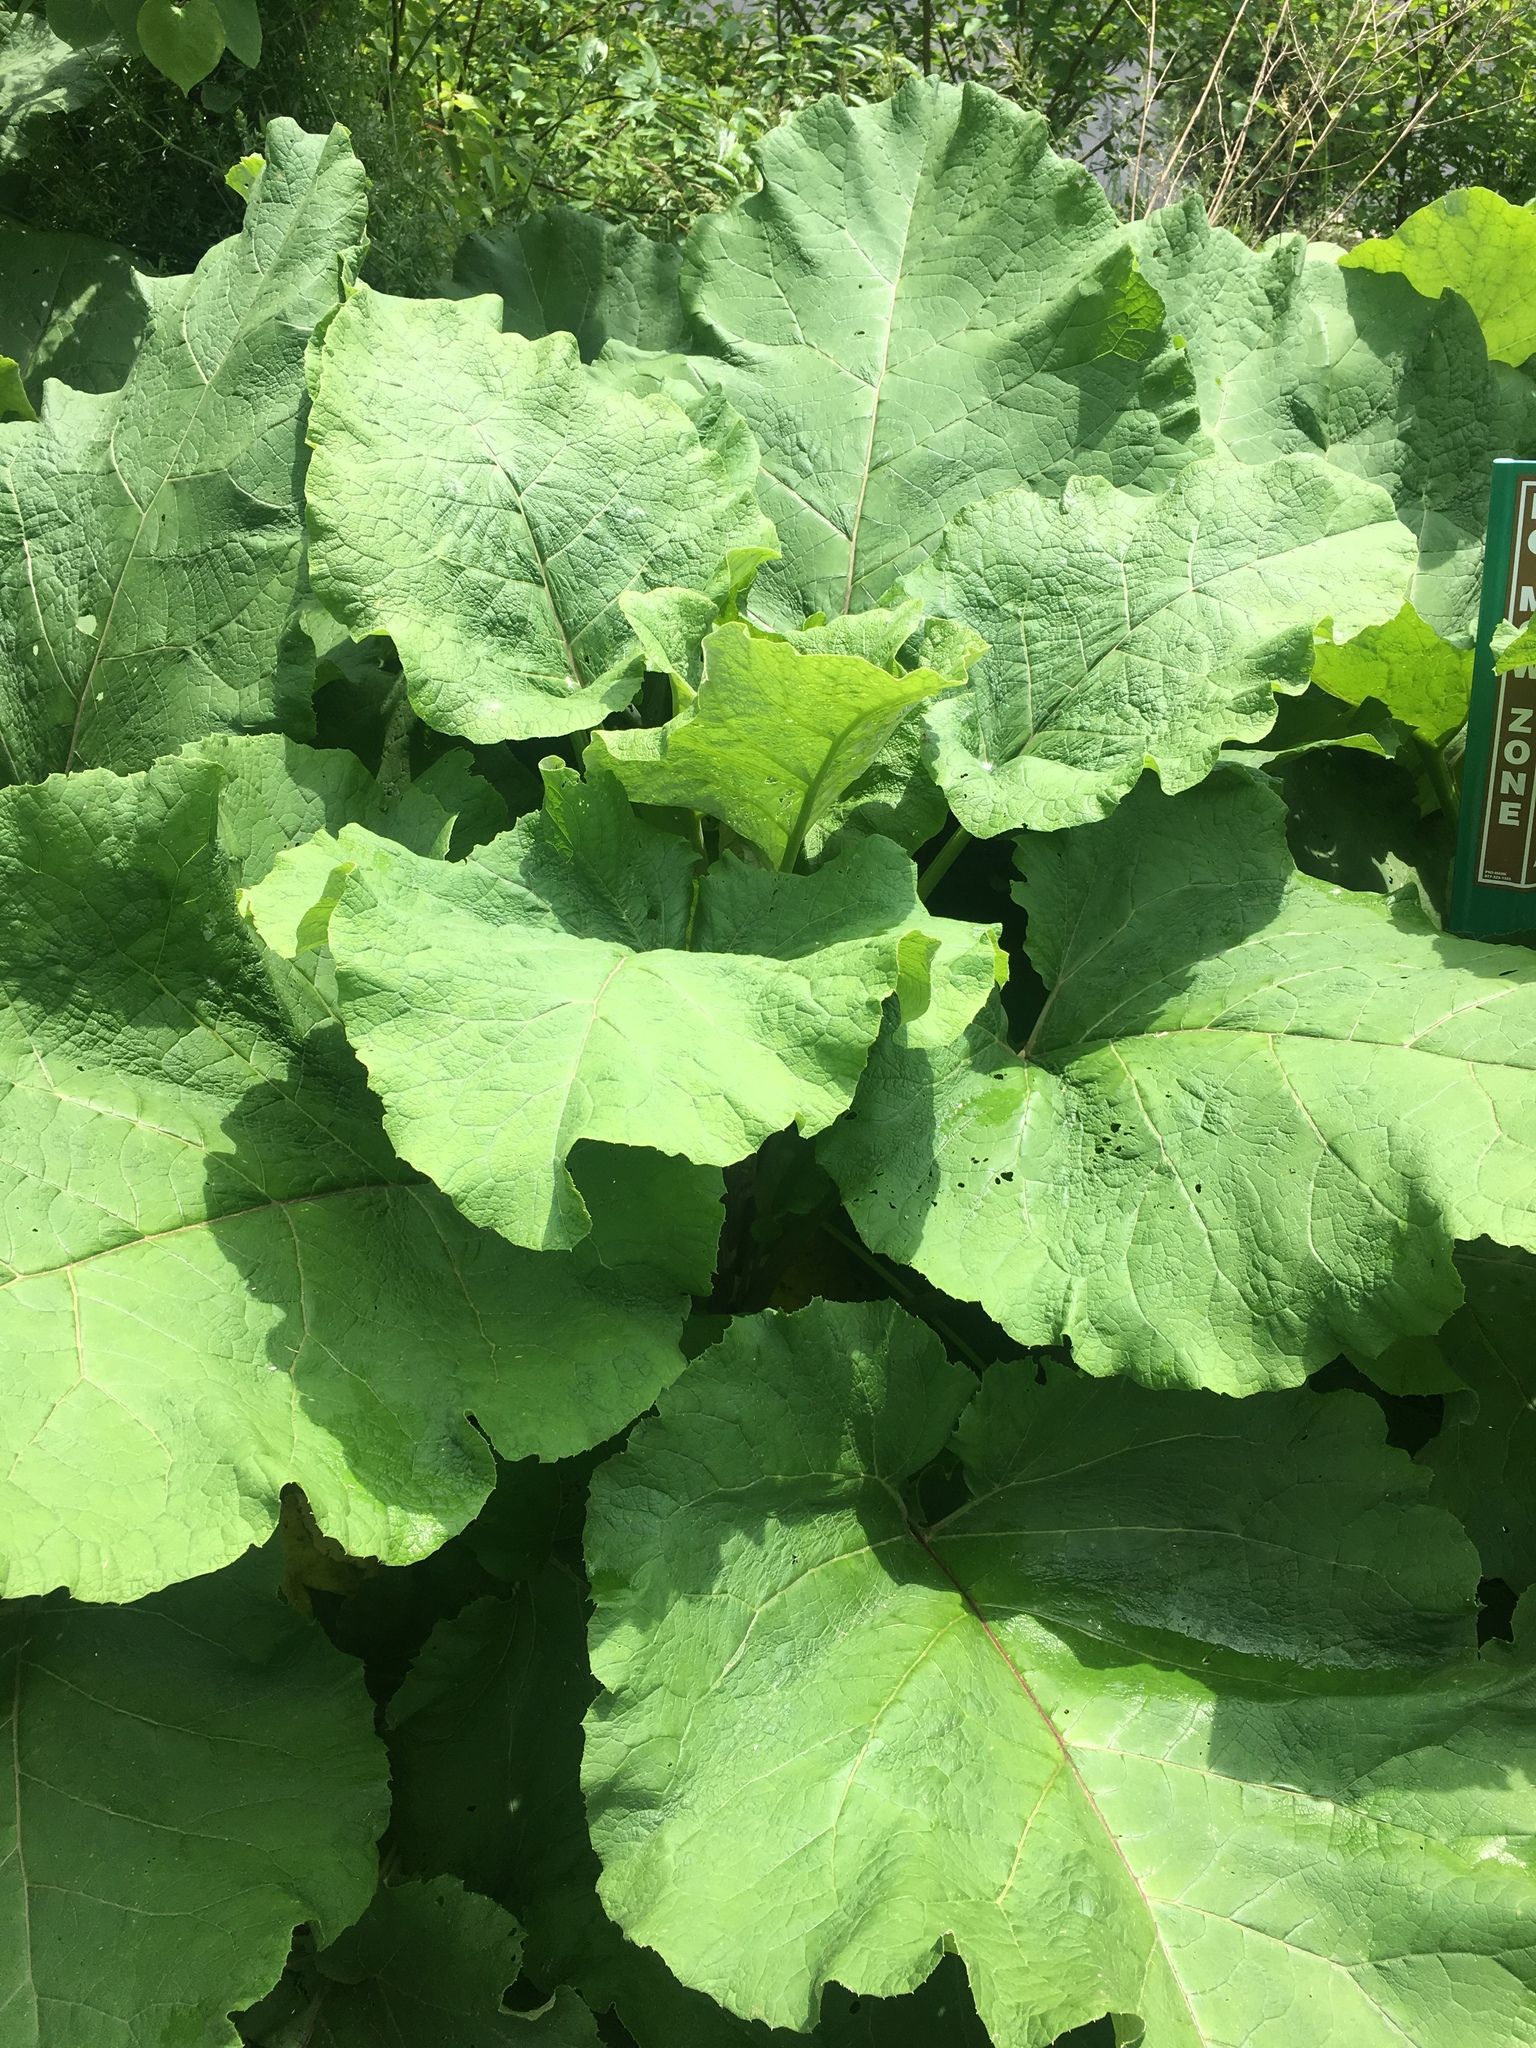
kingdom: Plantae
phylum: Tracheophyta
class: Magnoliopsida
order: Asterales
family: Asteraceae
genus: Arctium
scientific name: Arctium lappa
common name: Greater burdock
